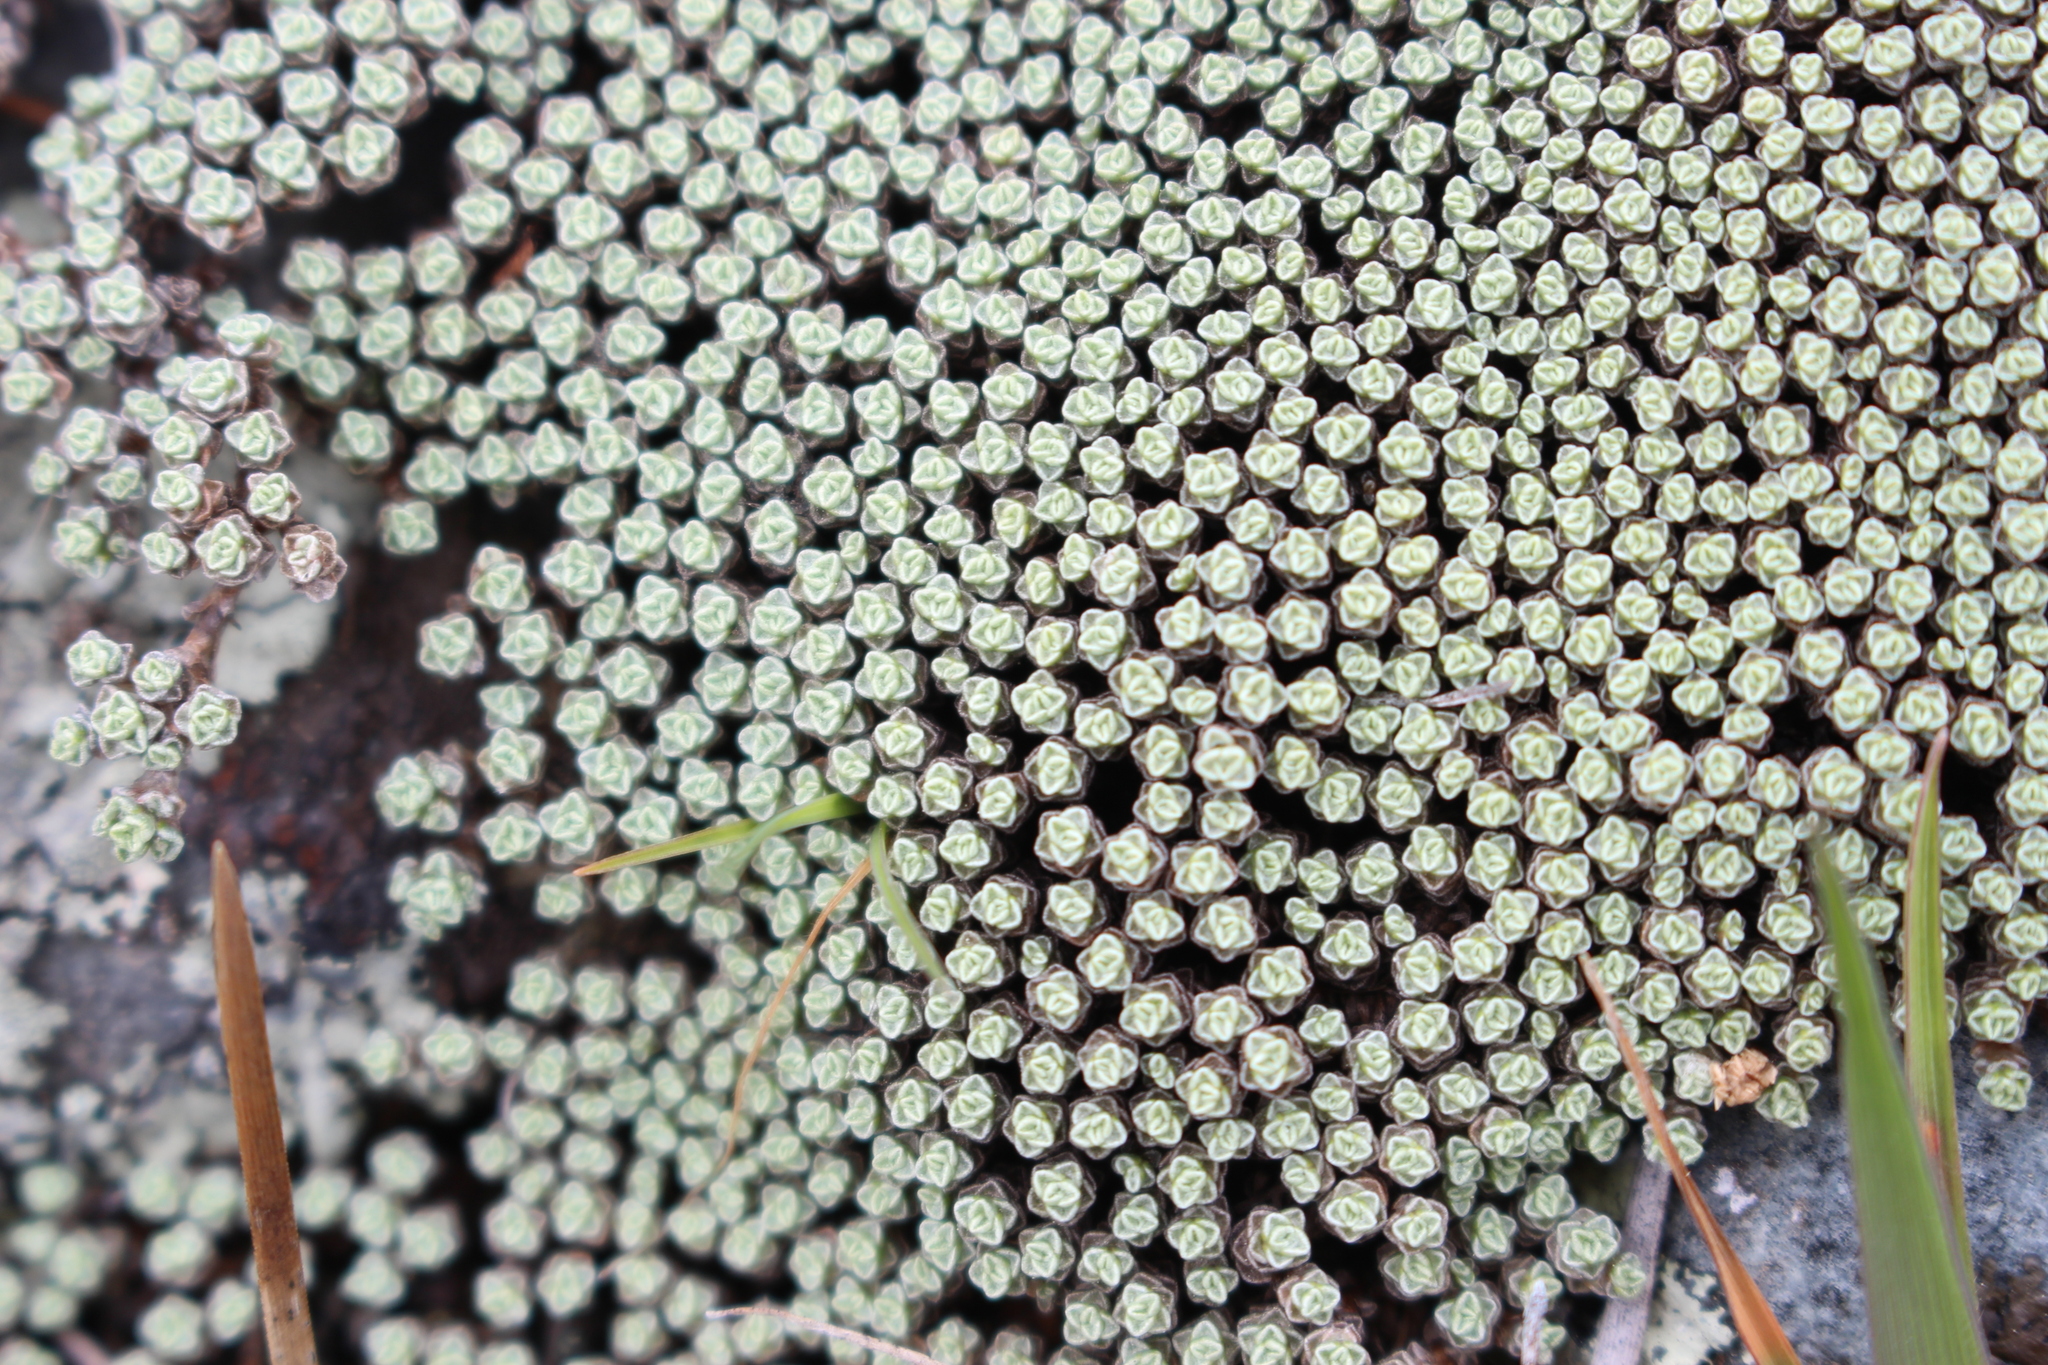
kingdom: Plantae
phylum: Tracheophyta
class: Magnoliopsida
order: Asterales
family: Asteraceae
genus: Raoulia
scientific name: Raoulia australis
